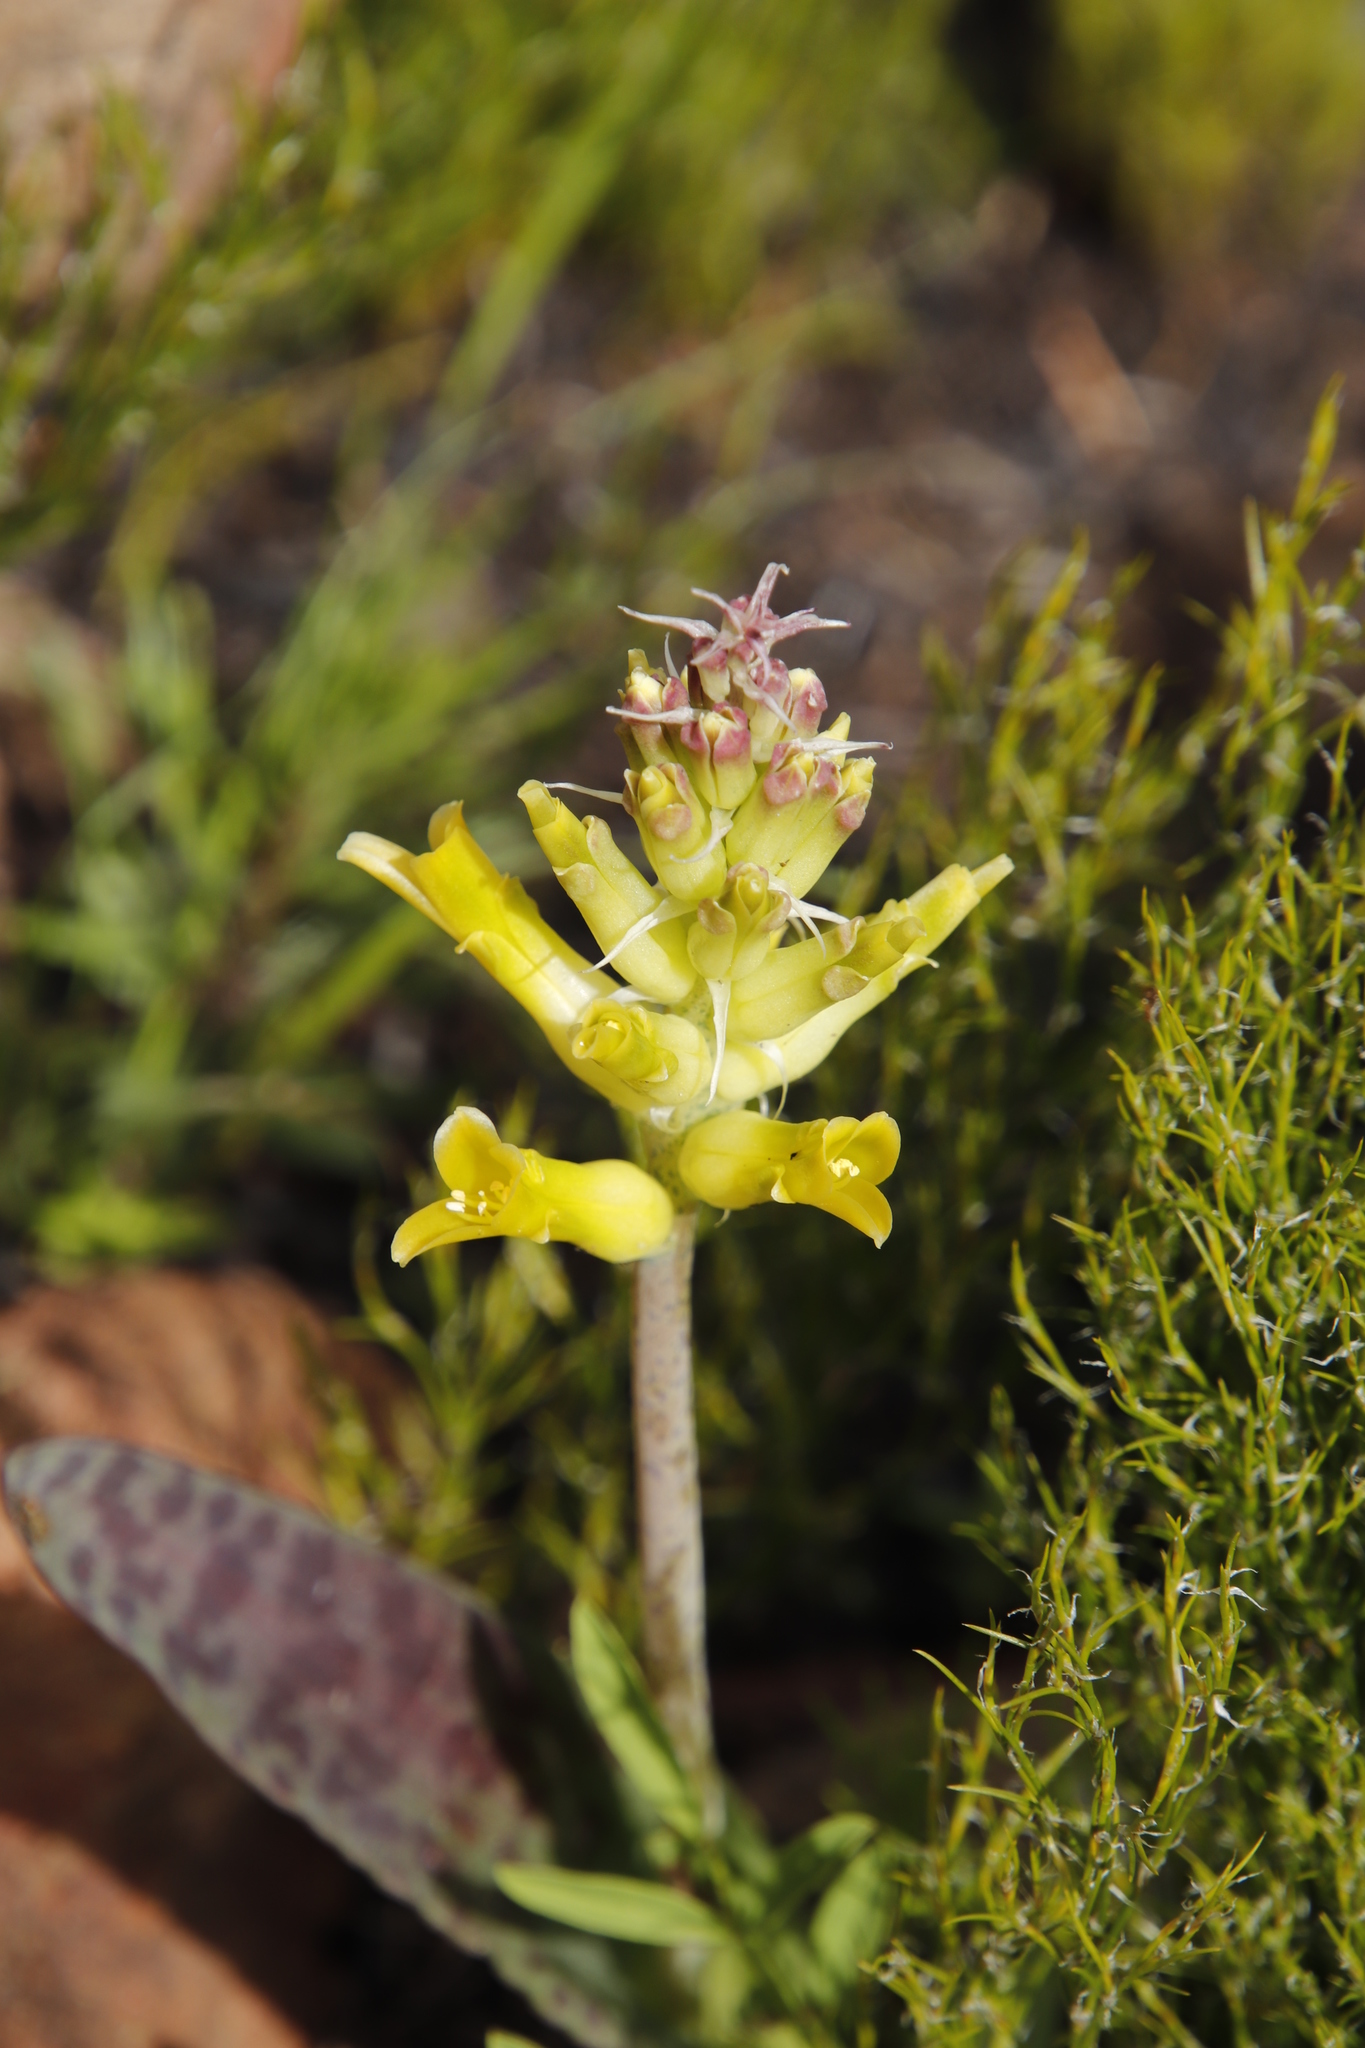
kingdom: Plantae
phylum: Tracheophyta
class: Liliopsida
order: Asparagales
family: Asparagaceae
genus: Lachenalia
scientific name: Lachenalia orchioides
